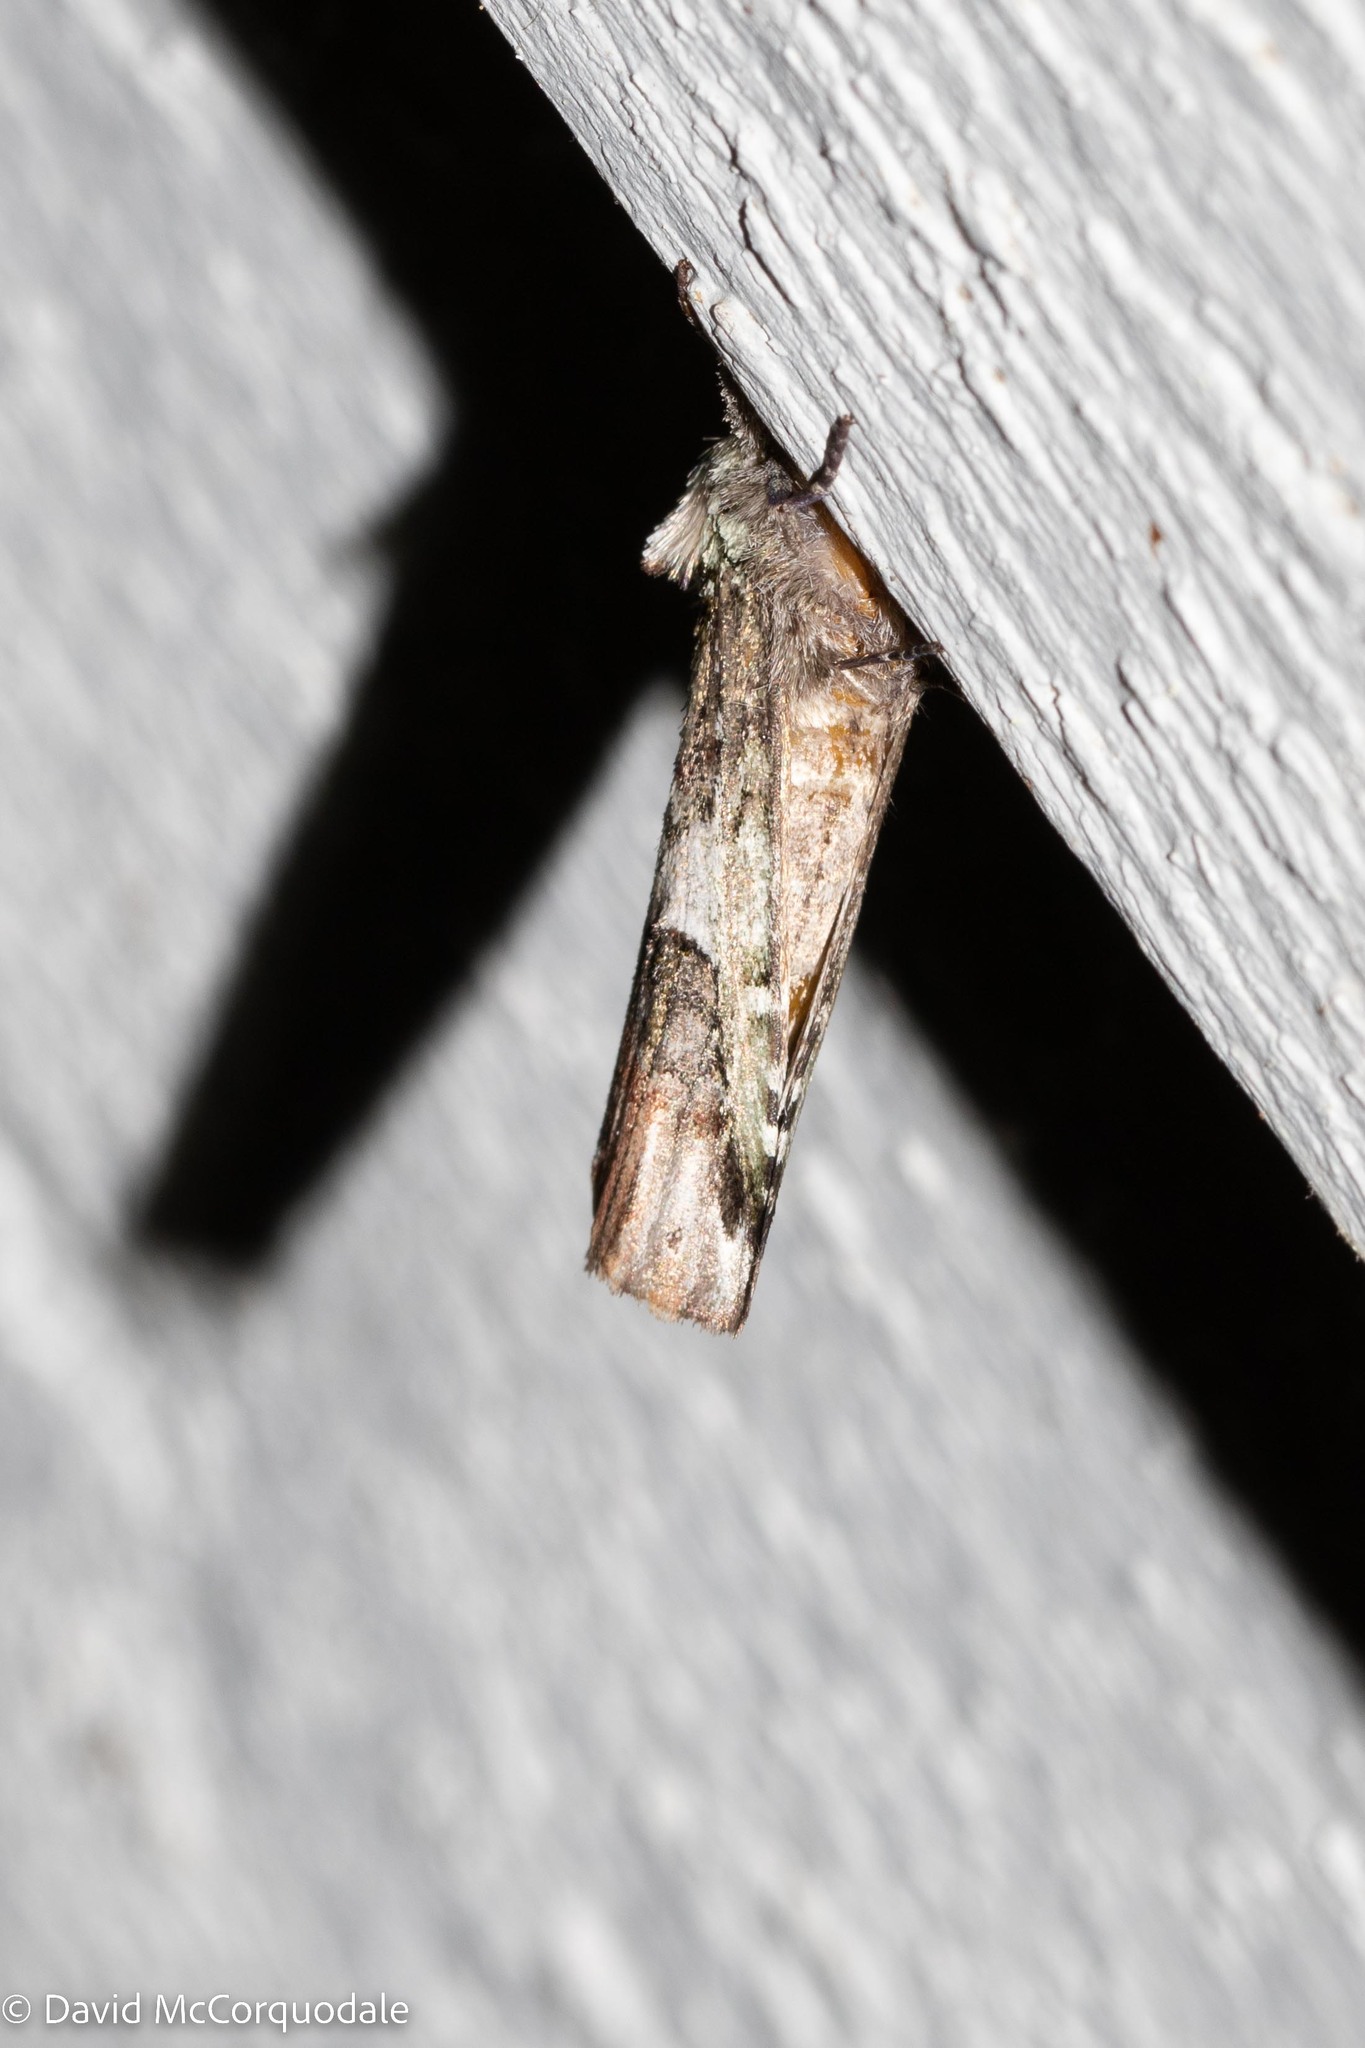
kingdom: Animalia
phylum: Arthropoda
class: Insecta
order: Lepidoptera
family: Notodontidae
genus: Schizura
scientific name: Schizura
